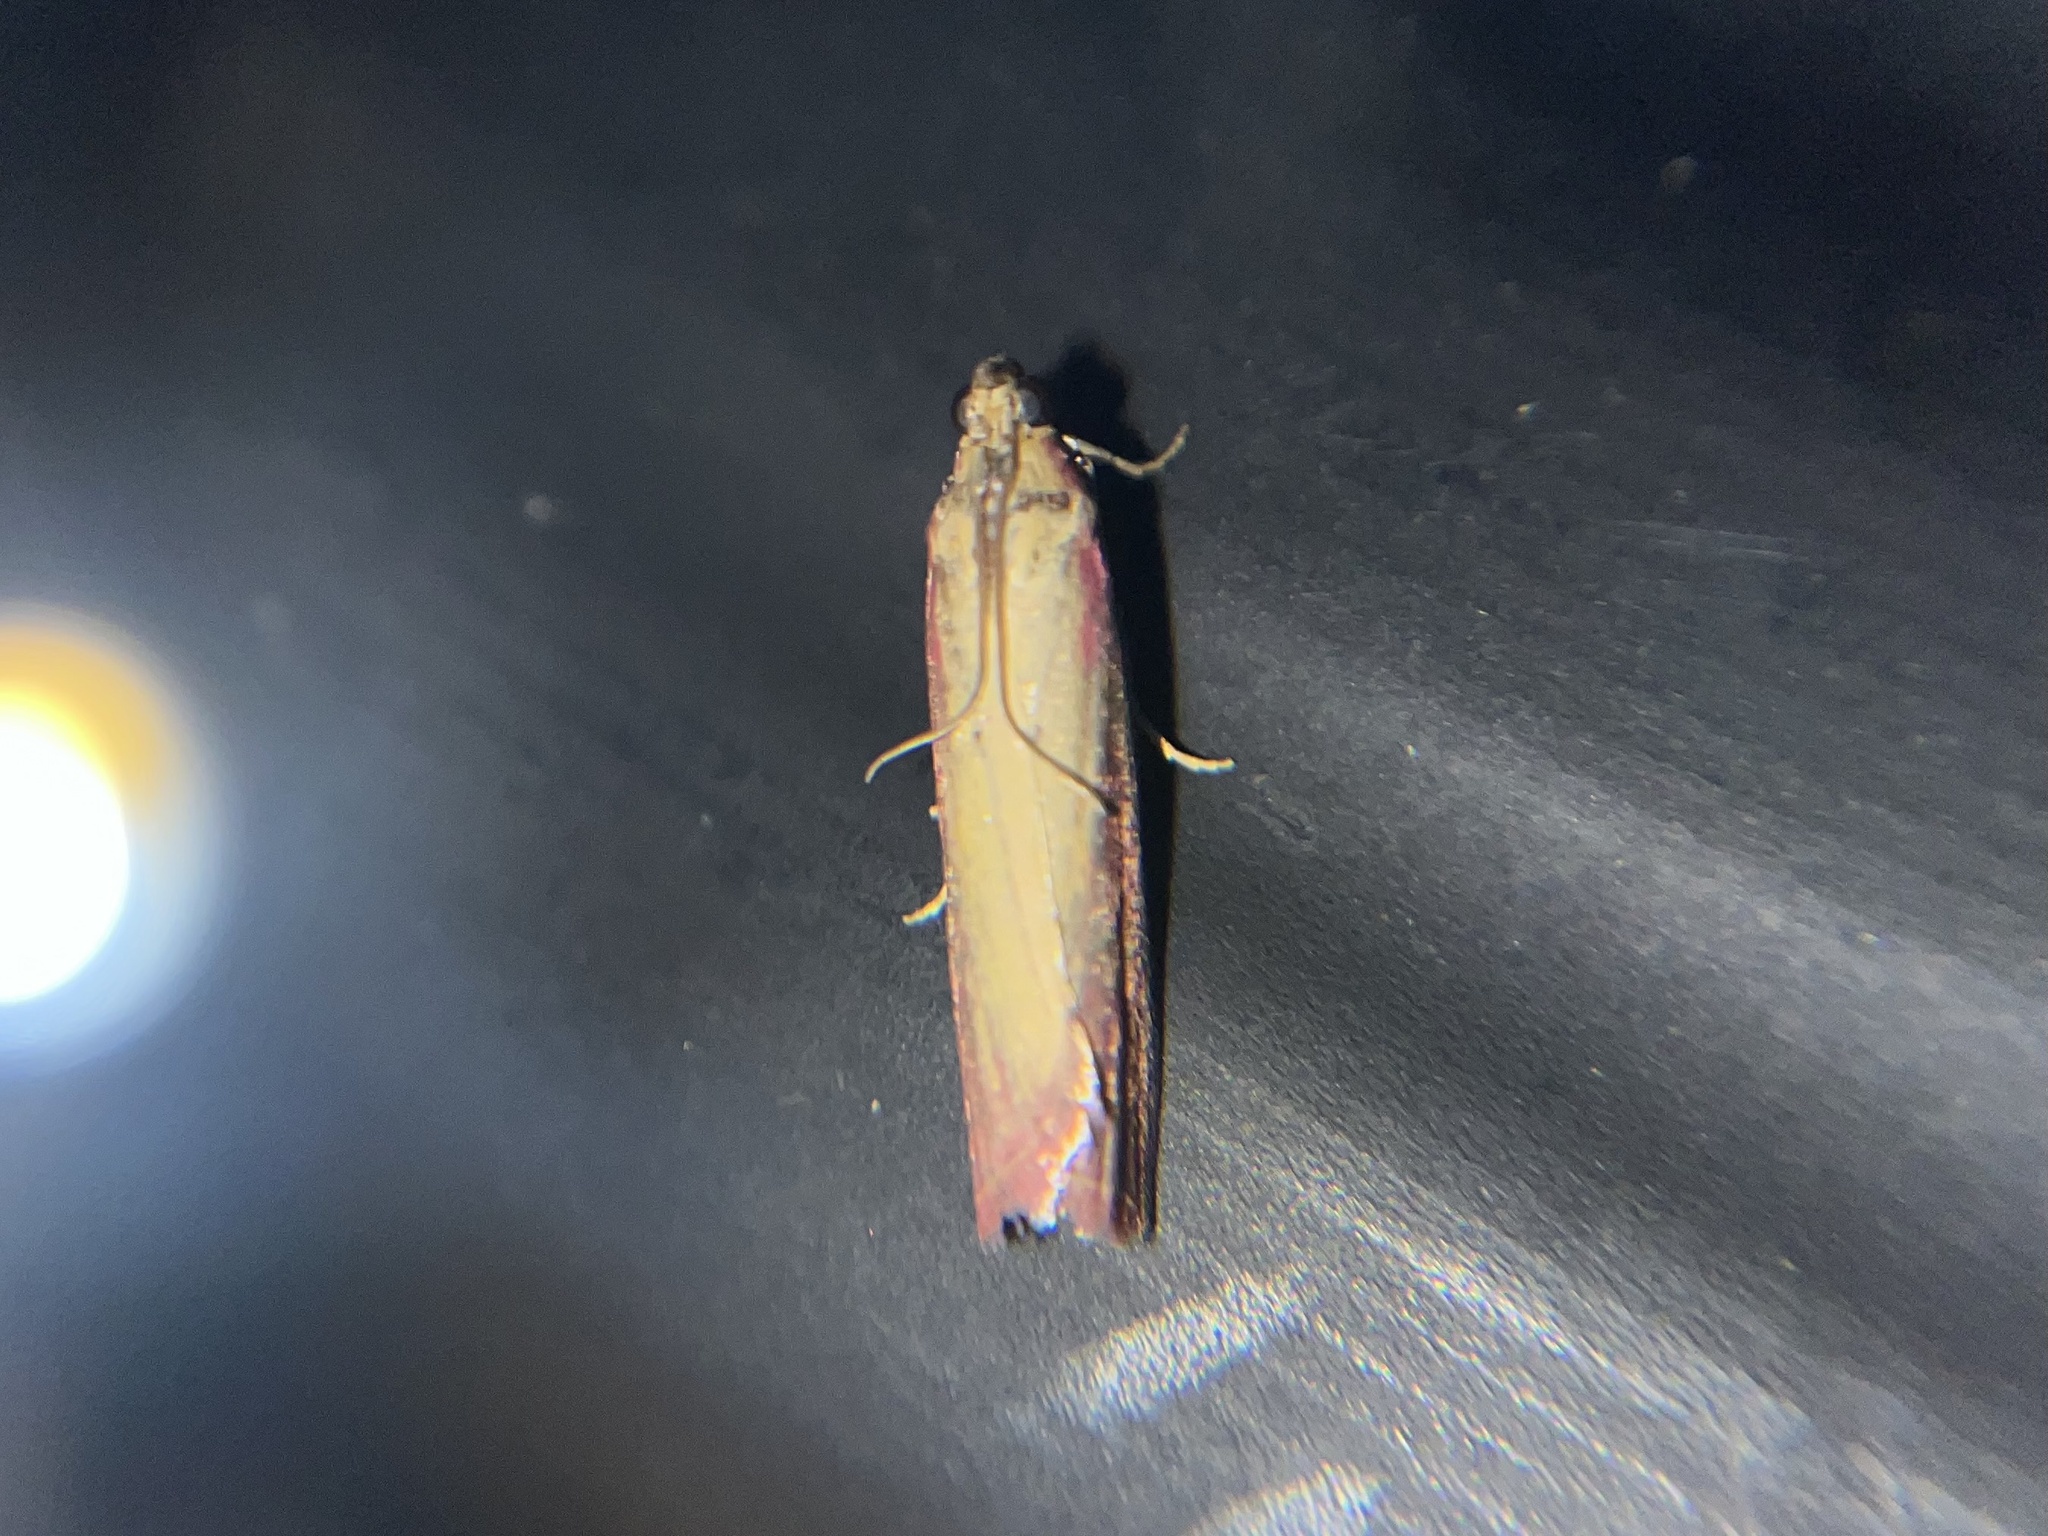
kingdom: Animalia
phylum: Arthropoda
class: Insecta
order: Lepidoptera
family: Pyralidae
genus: Oncocera
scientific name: Oncocera semirubella
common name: Rosy-striped knot-horn
